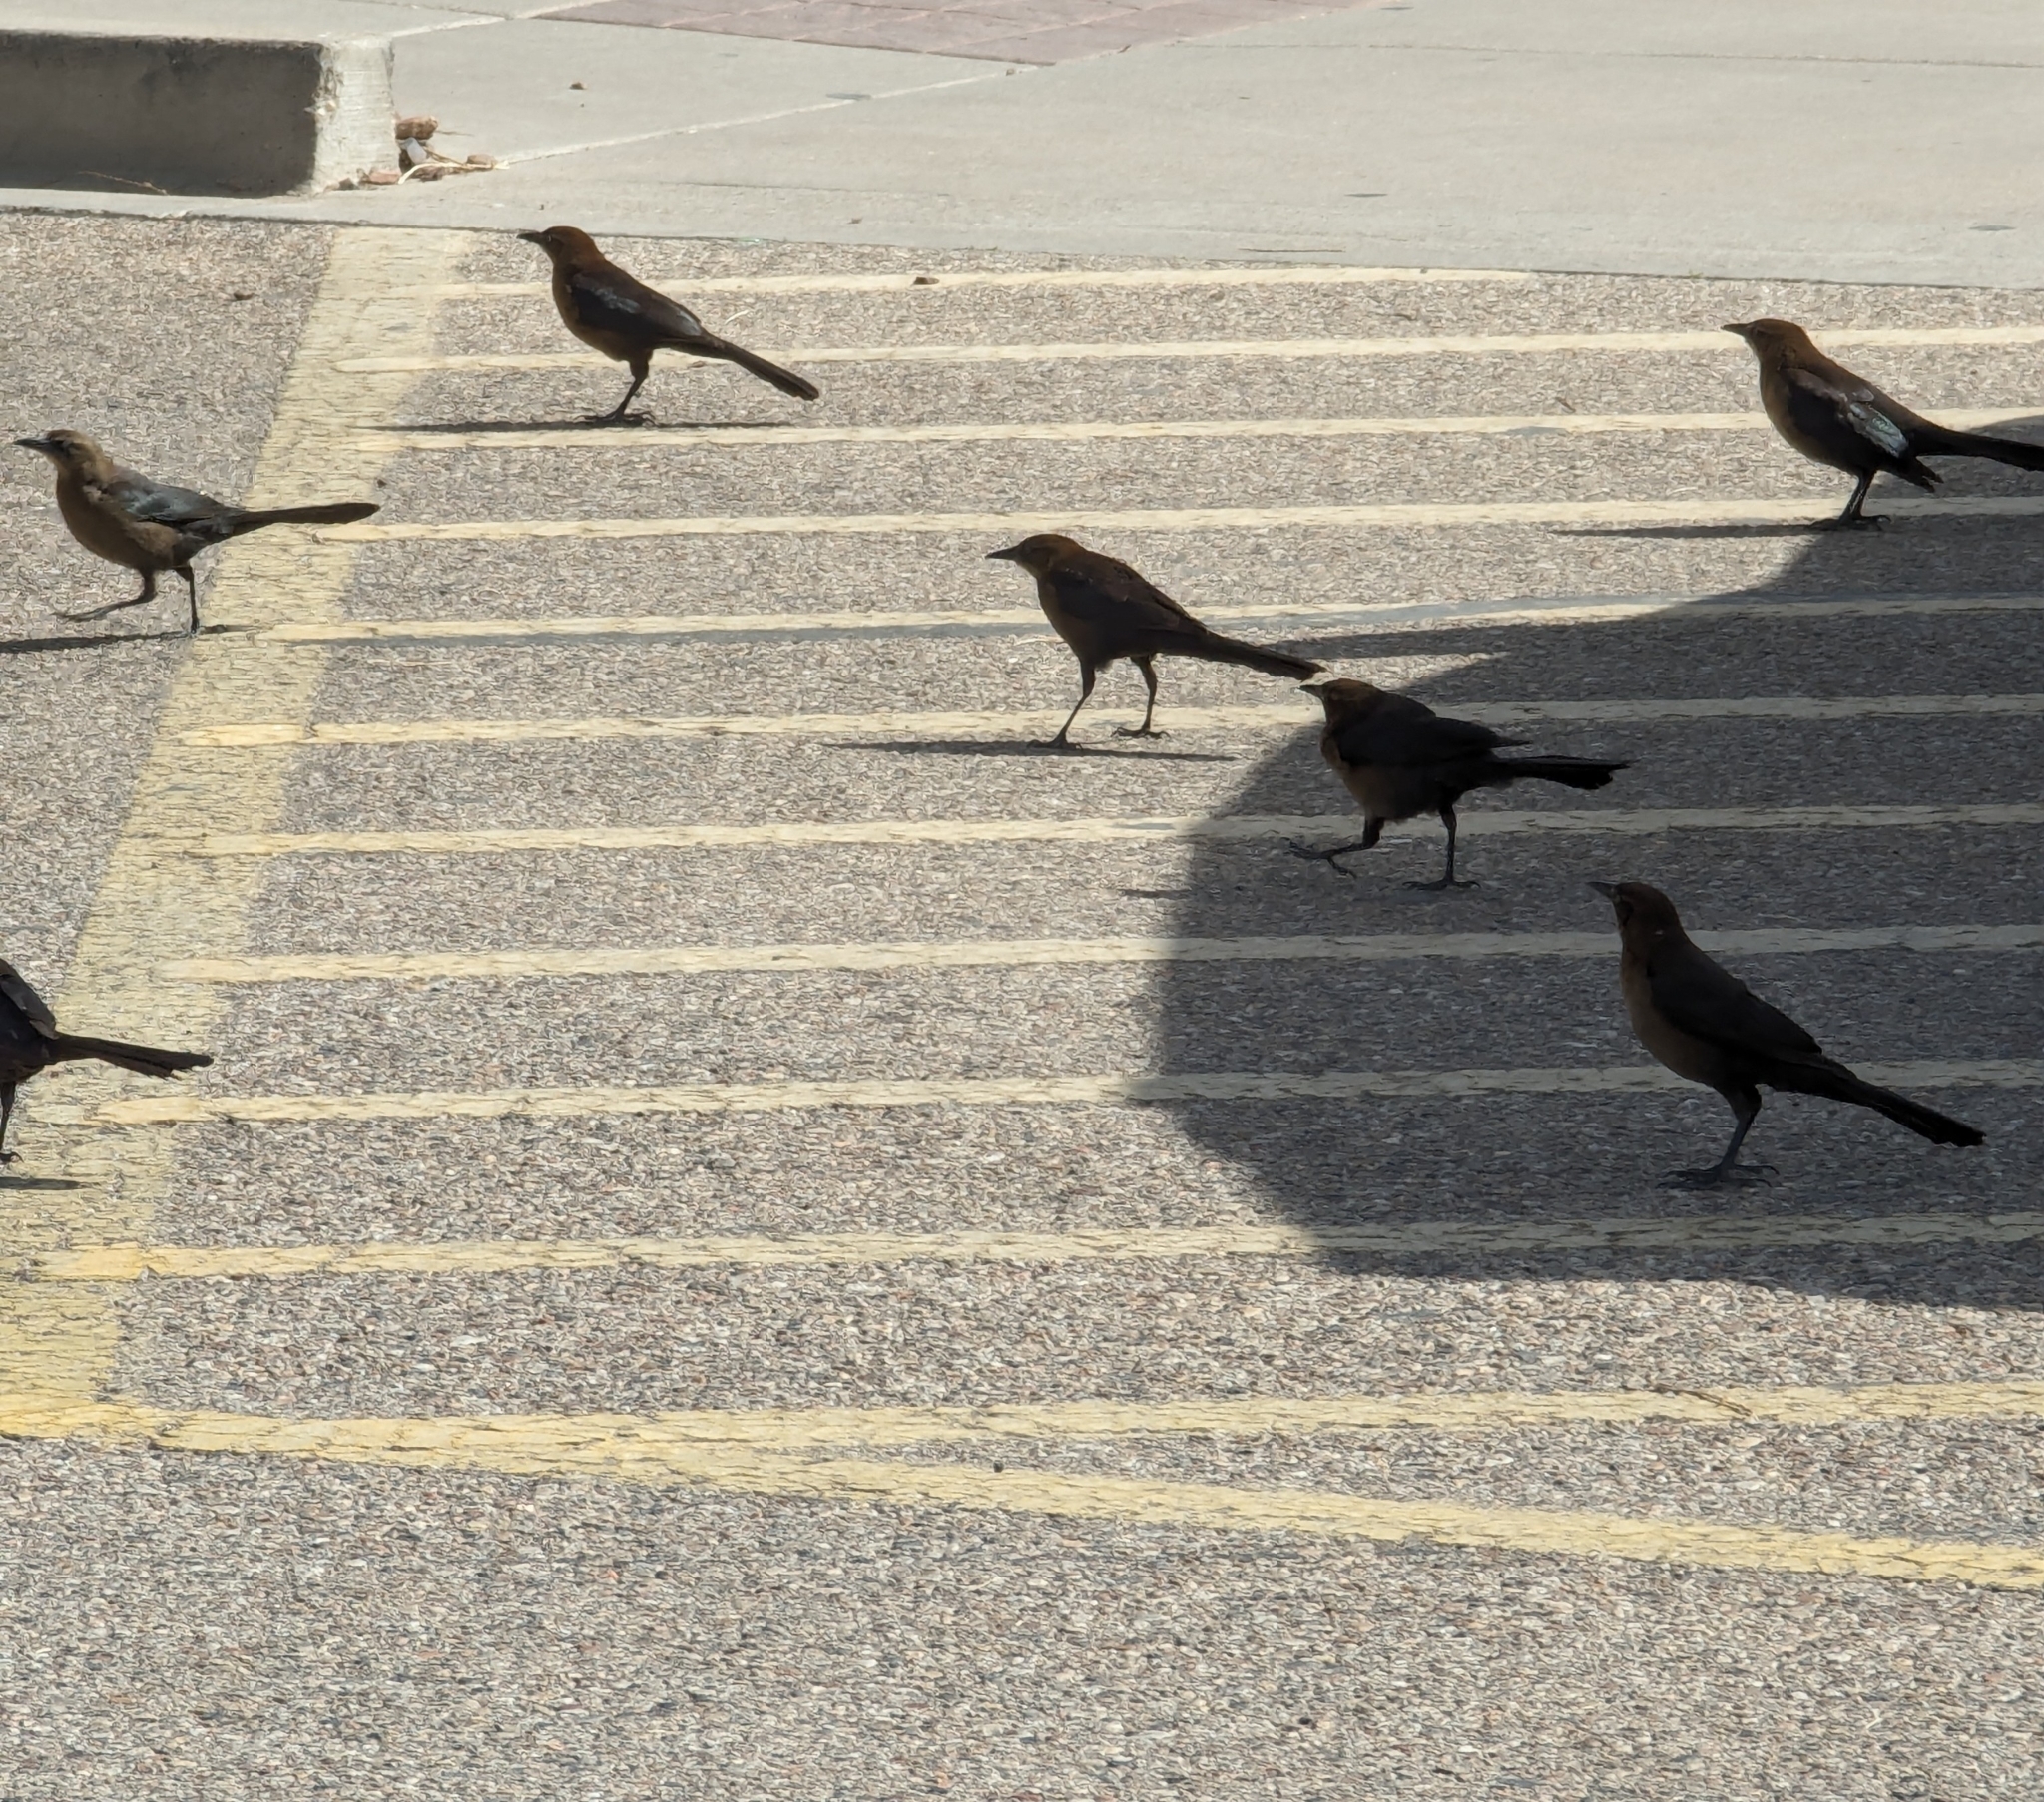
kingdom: Animalia
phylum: Chordata
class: Aves
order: Passeriformes
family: Icteridae
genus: Quiscalus
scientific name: Quiscalus mexicanus
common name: Great-tailed grackle
